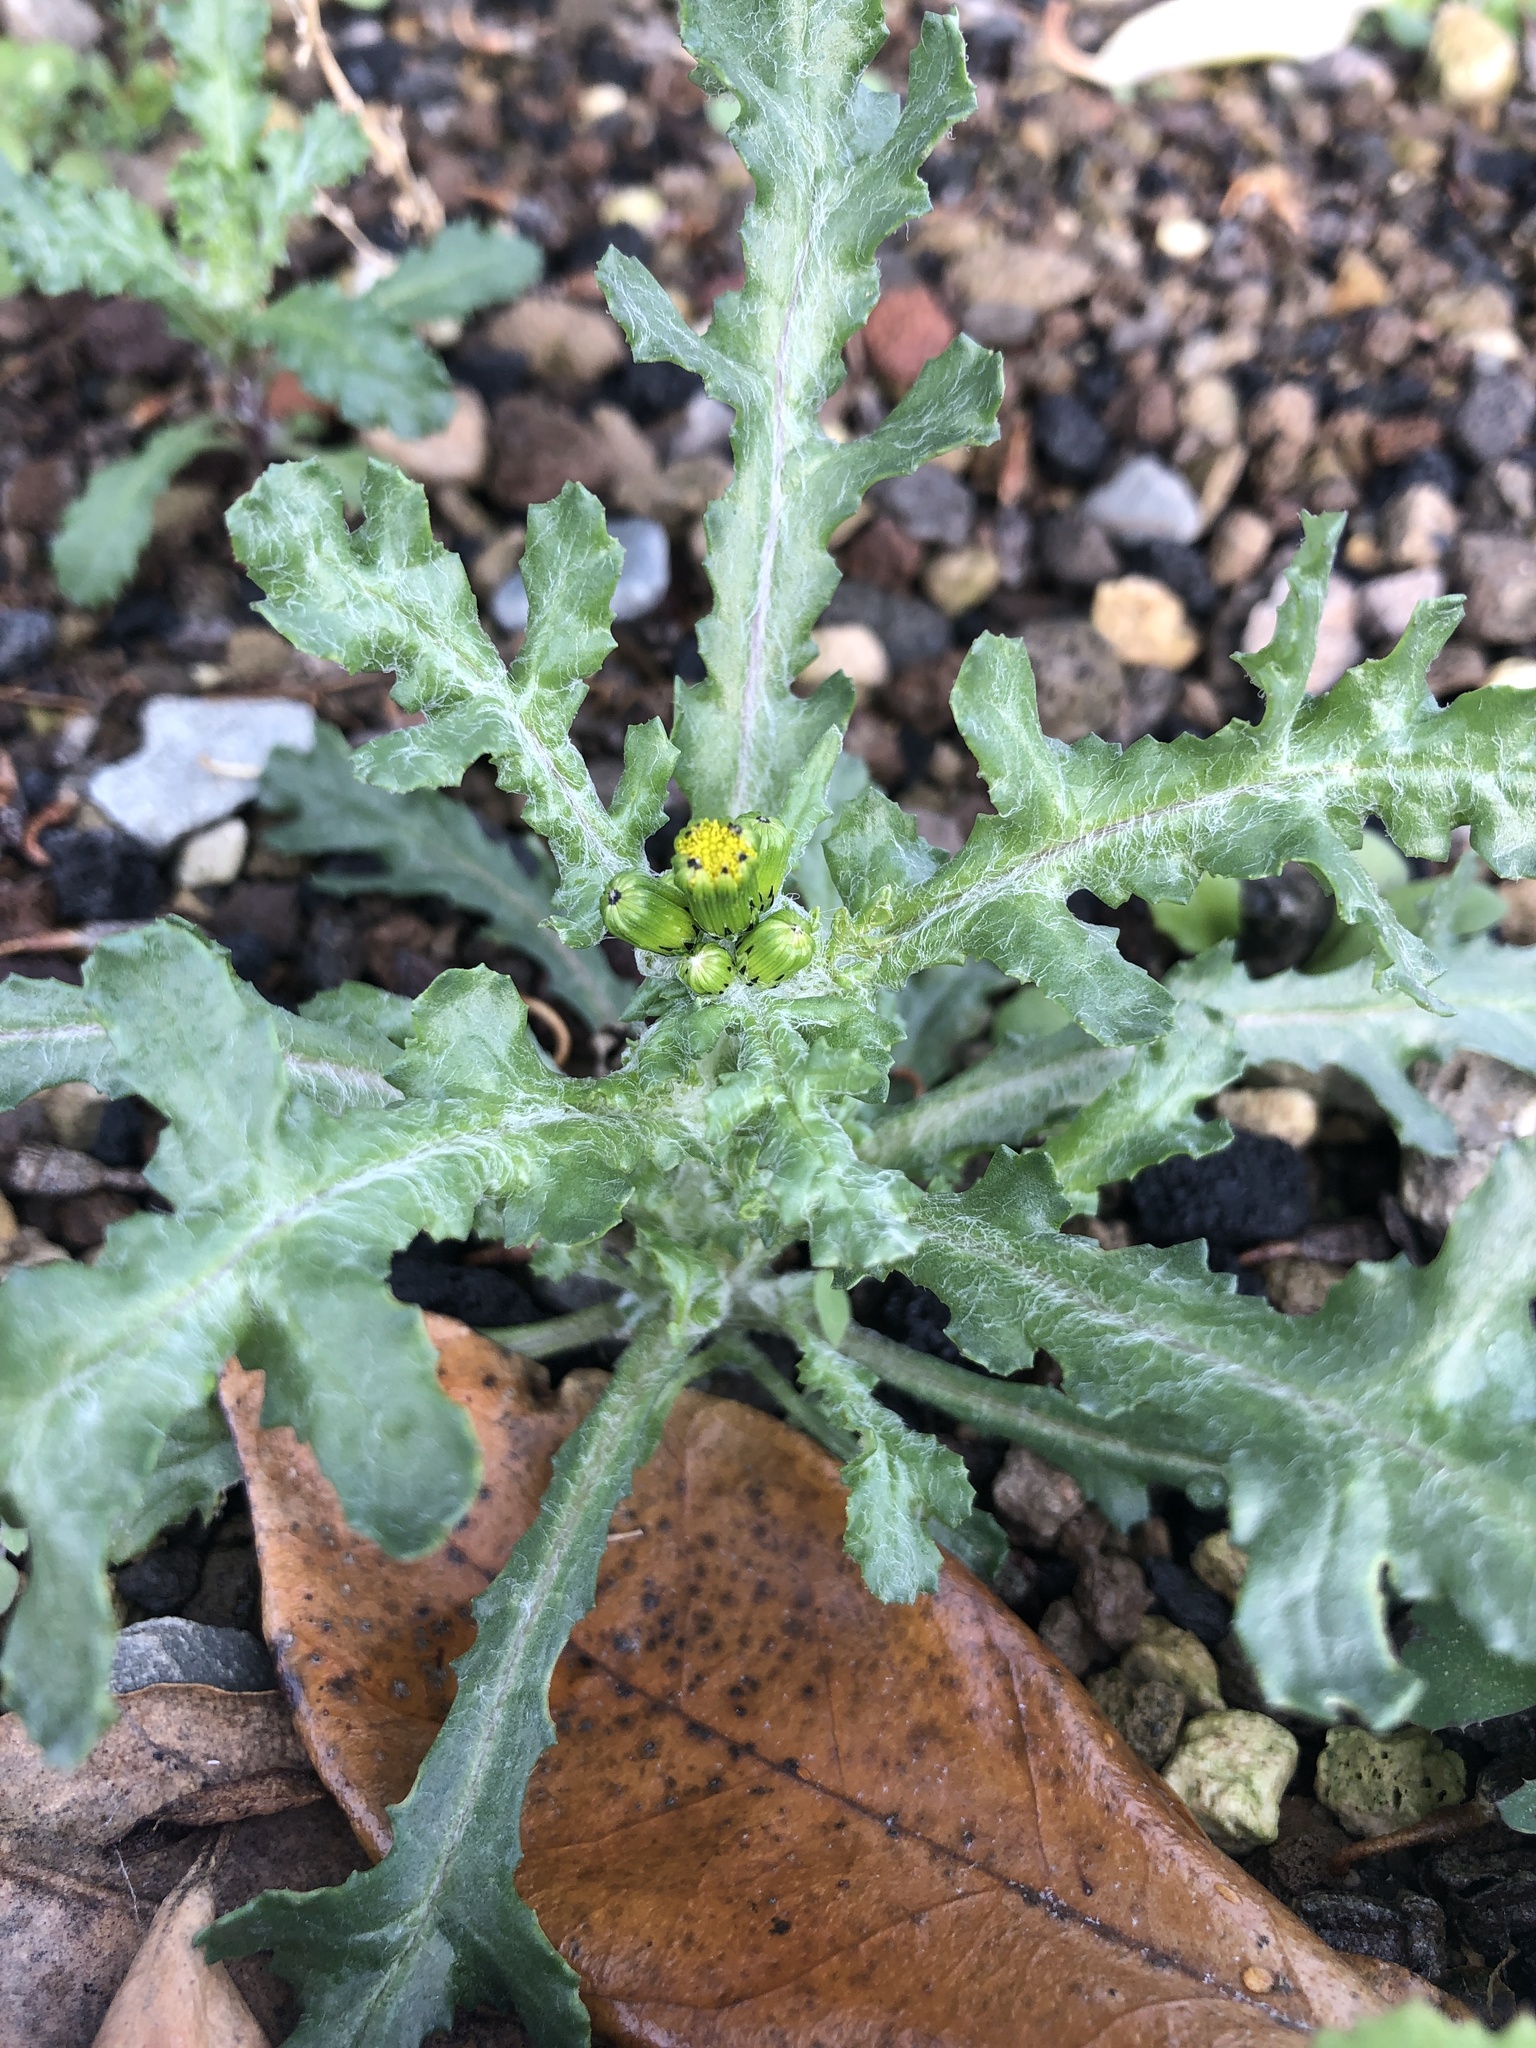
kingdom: Plantae
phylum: Tracheophyta
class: Magnoliopsida
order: Asterales
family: Asteraceae
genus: Senecio
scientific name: Senecio vulgaris
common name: Old-man-in-the-spring
